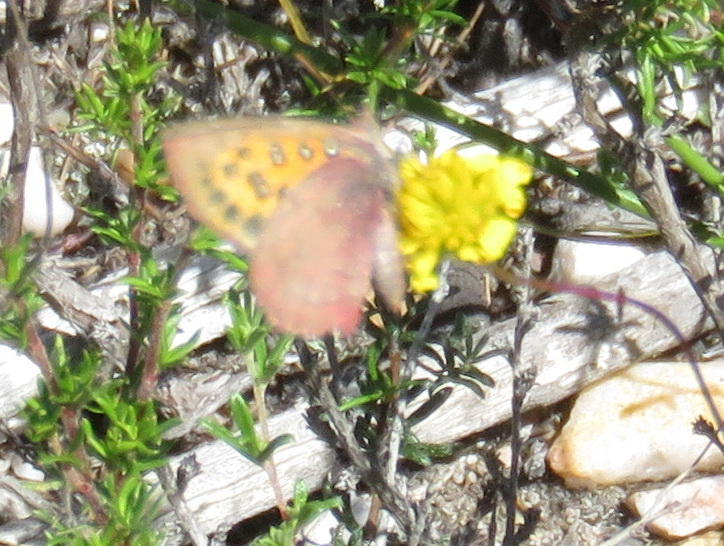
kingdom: Animalia
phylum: Arthropoda
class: Insecta
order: Lepidoptera
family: Lycaenidae
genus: Axiocerses
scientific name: Axiocerses thyra
